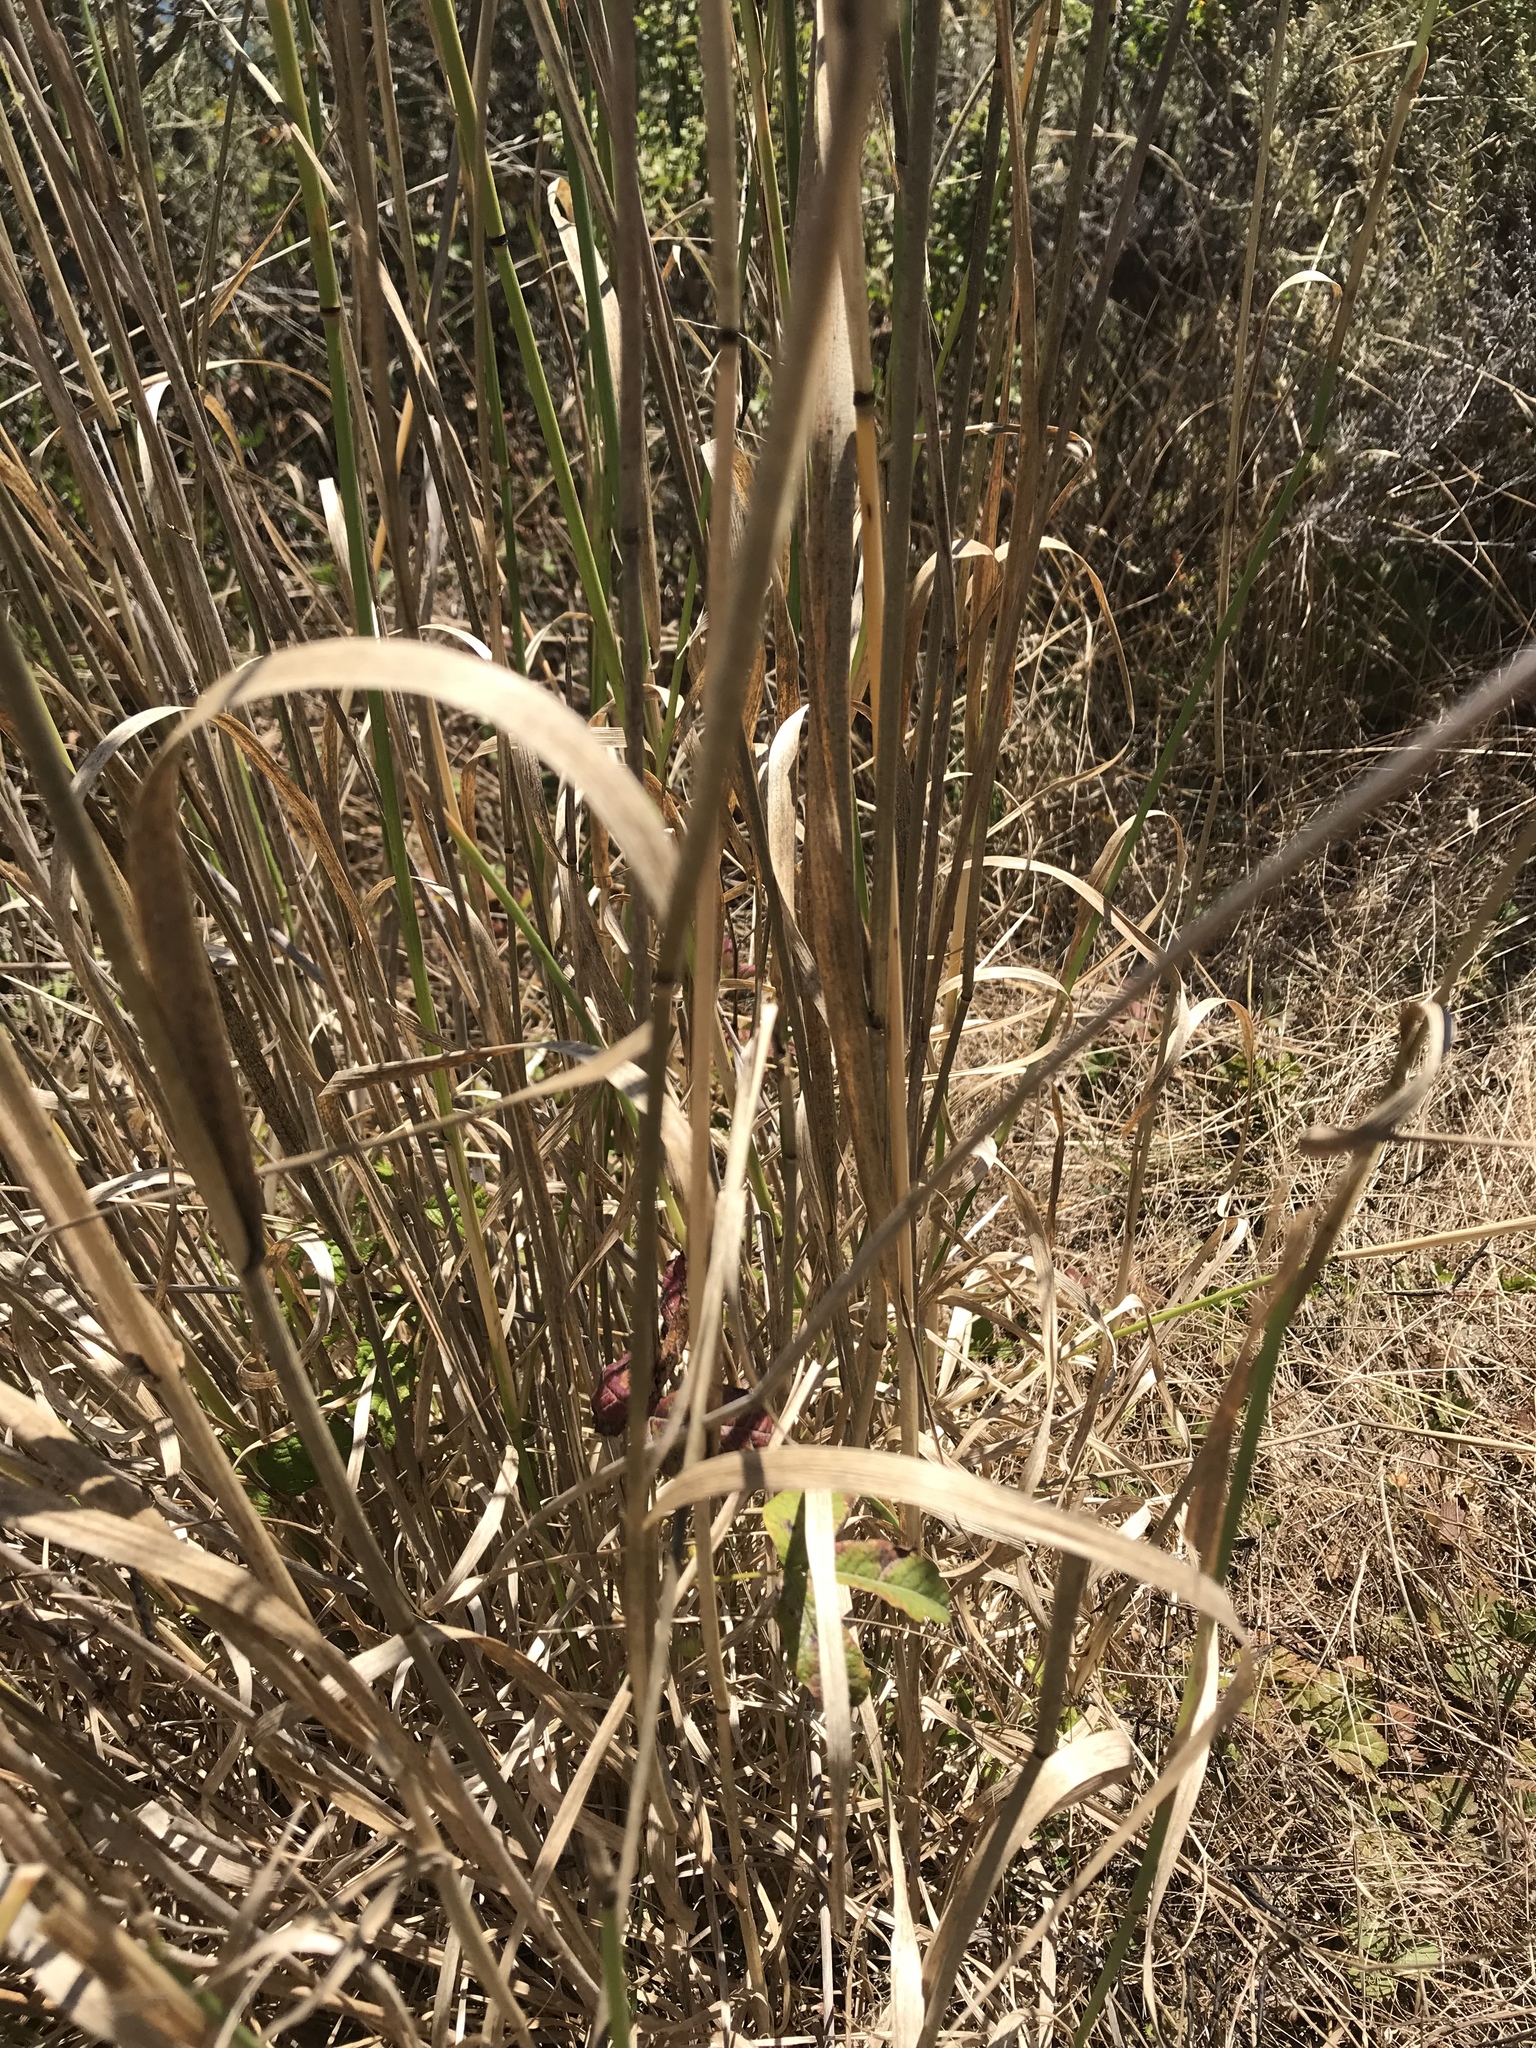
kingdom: Plantae
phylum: Tracheophyta
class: Liliopsida
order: Poales
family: Poaceae
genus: Phalaris
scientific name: Phalaris aquatica
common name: Bulbous canary-grass
